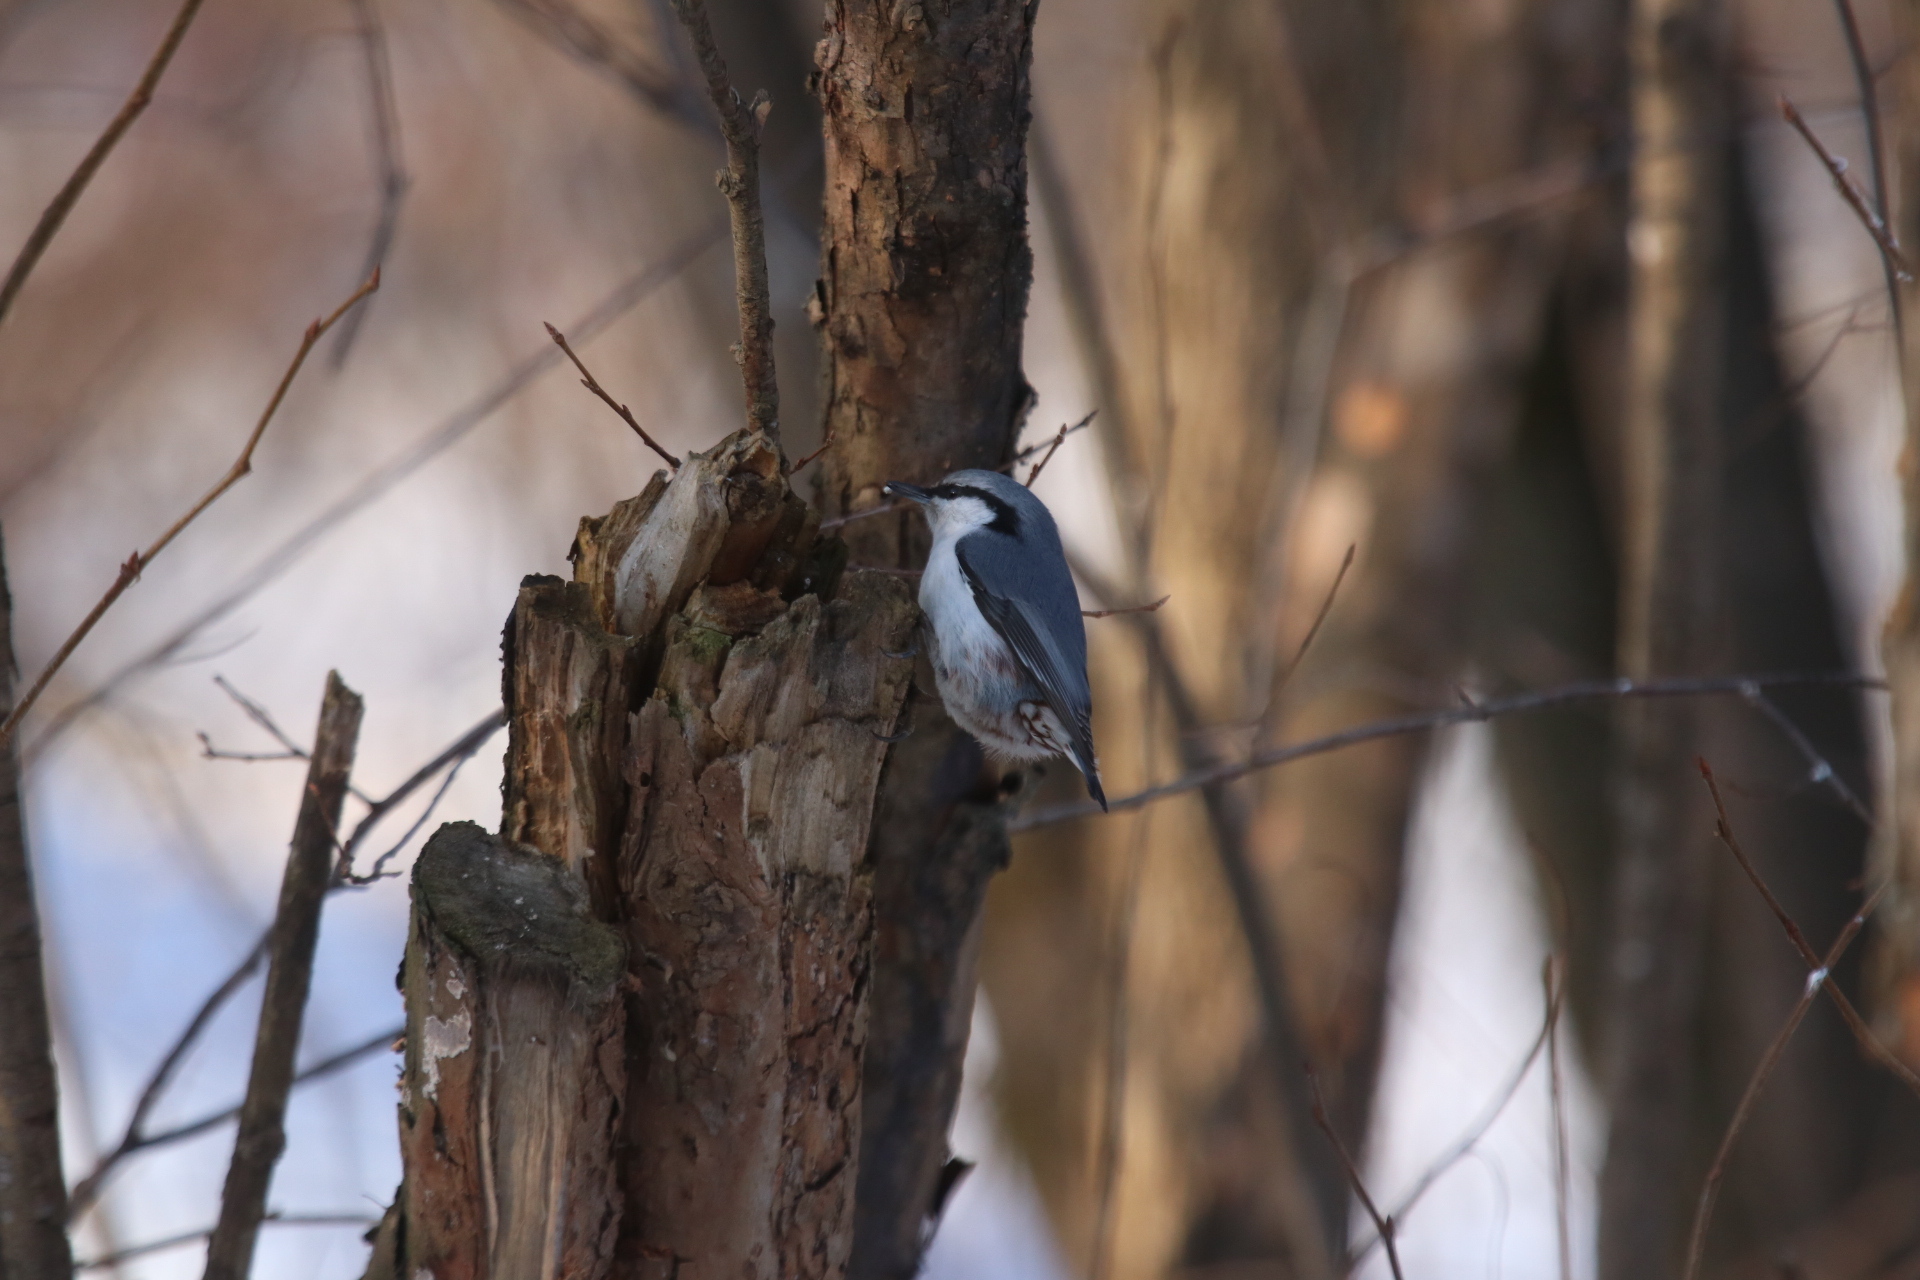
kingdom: Animalia
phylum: Chordata
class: Aves
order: Passeriformes
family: Sittidae
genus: Sitta
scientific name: Sitta europaea
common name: Eurasian nuthatch
